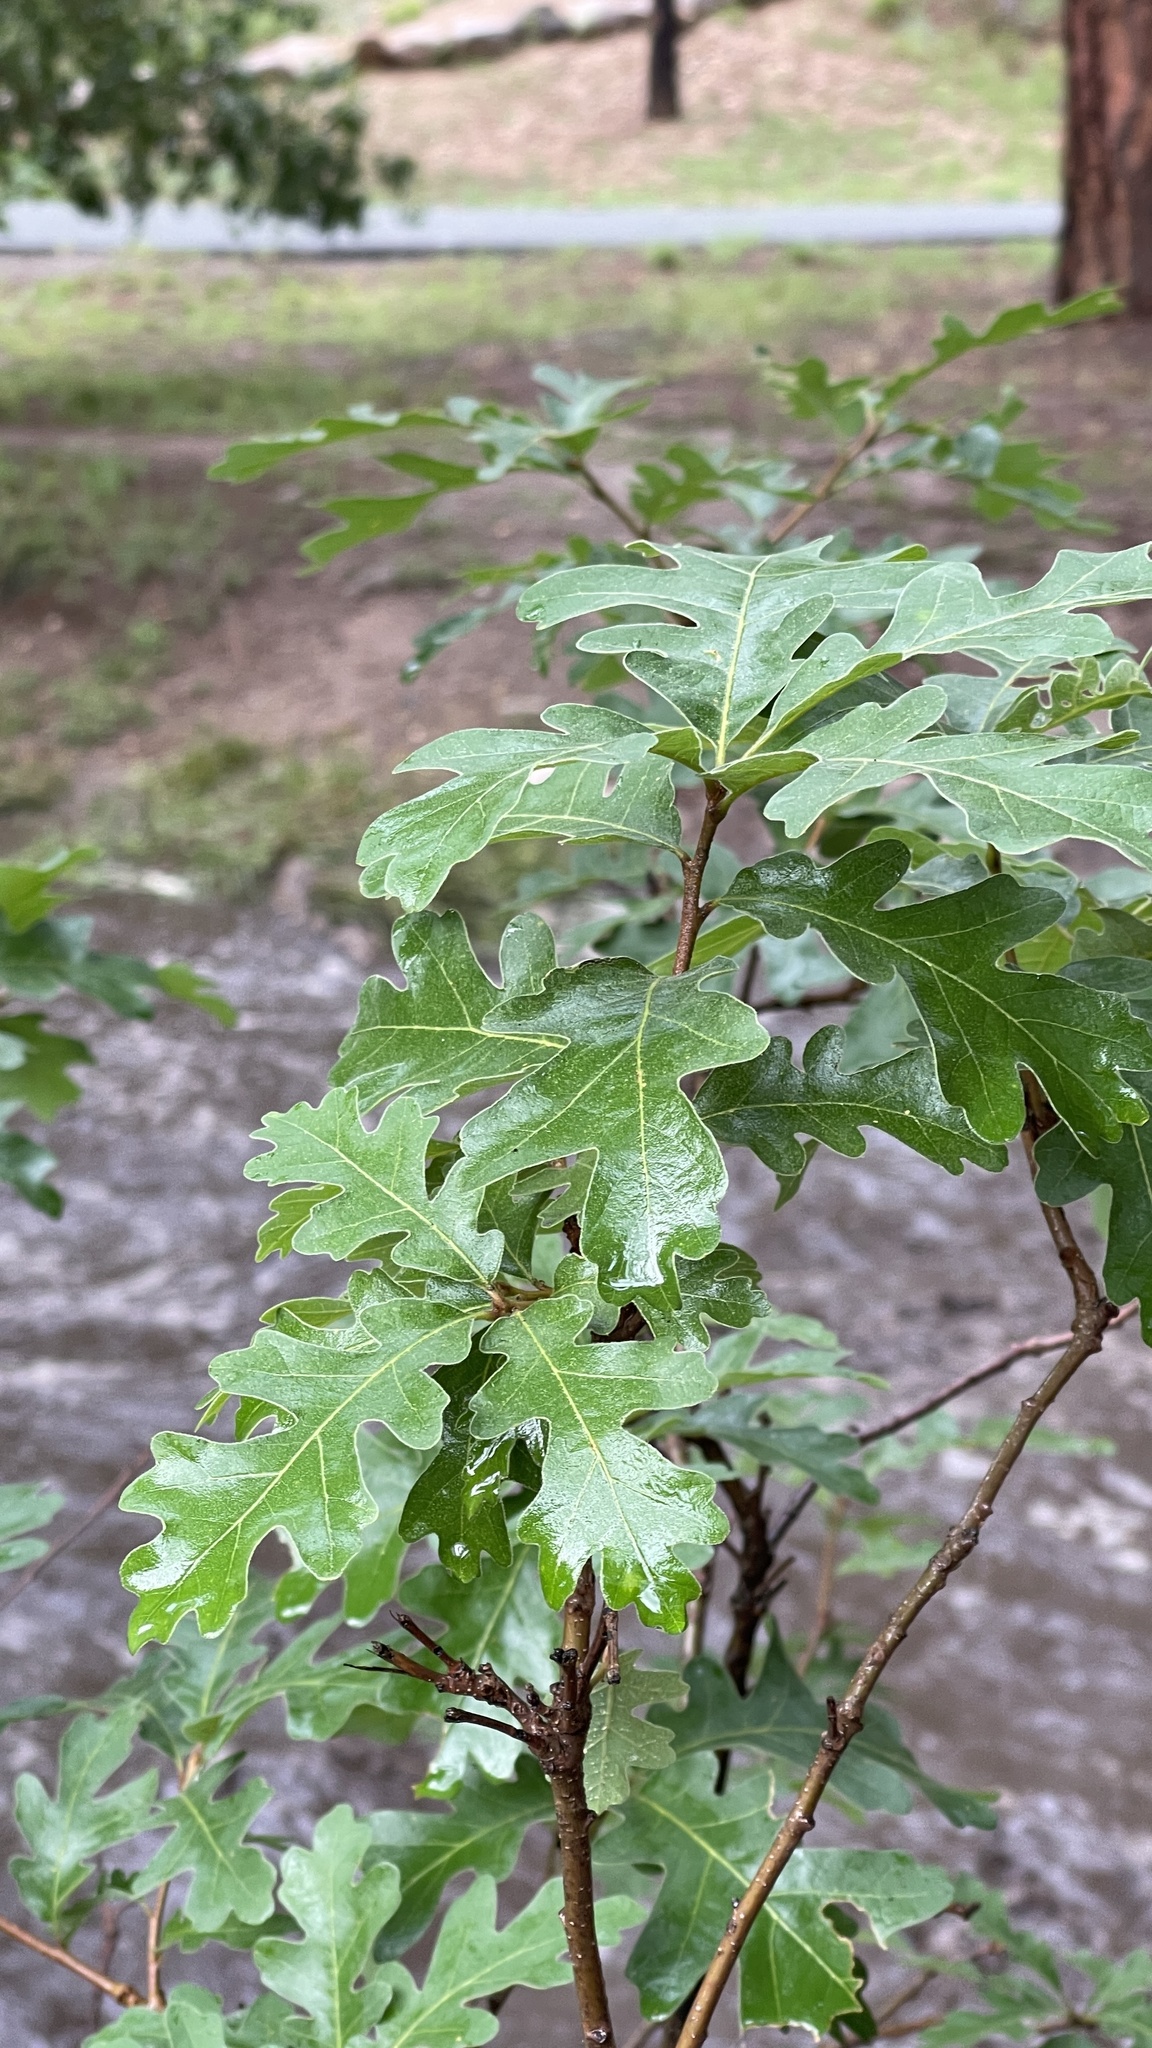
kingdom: Plantae
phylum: Tracheophyta
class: Magnoliopsida
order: Fagales
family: Fagaceae
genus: Quercus
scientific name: Quercus gambelii
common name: Gambel oak
